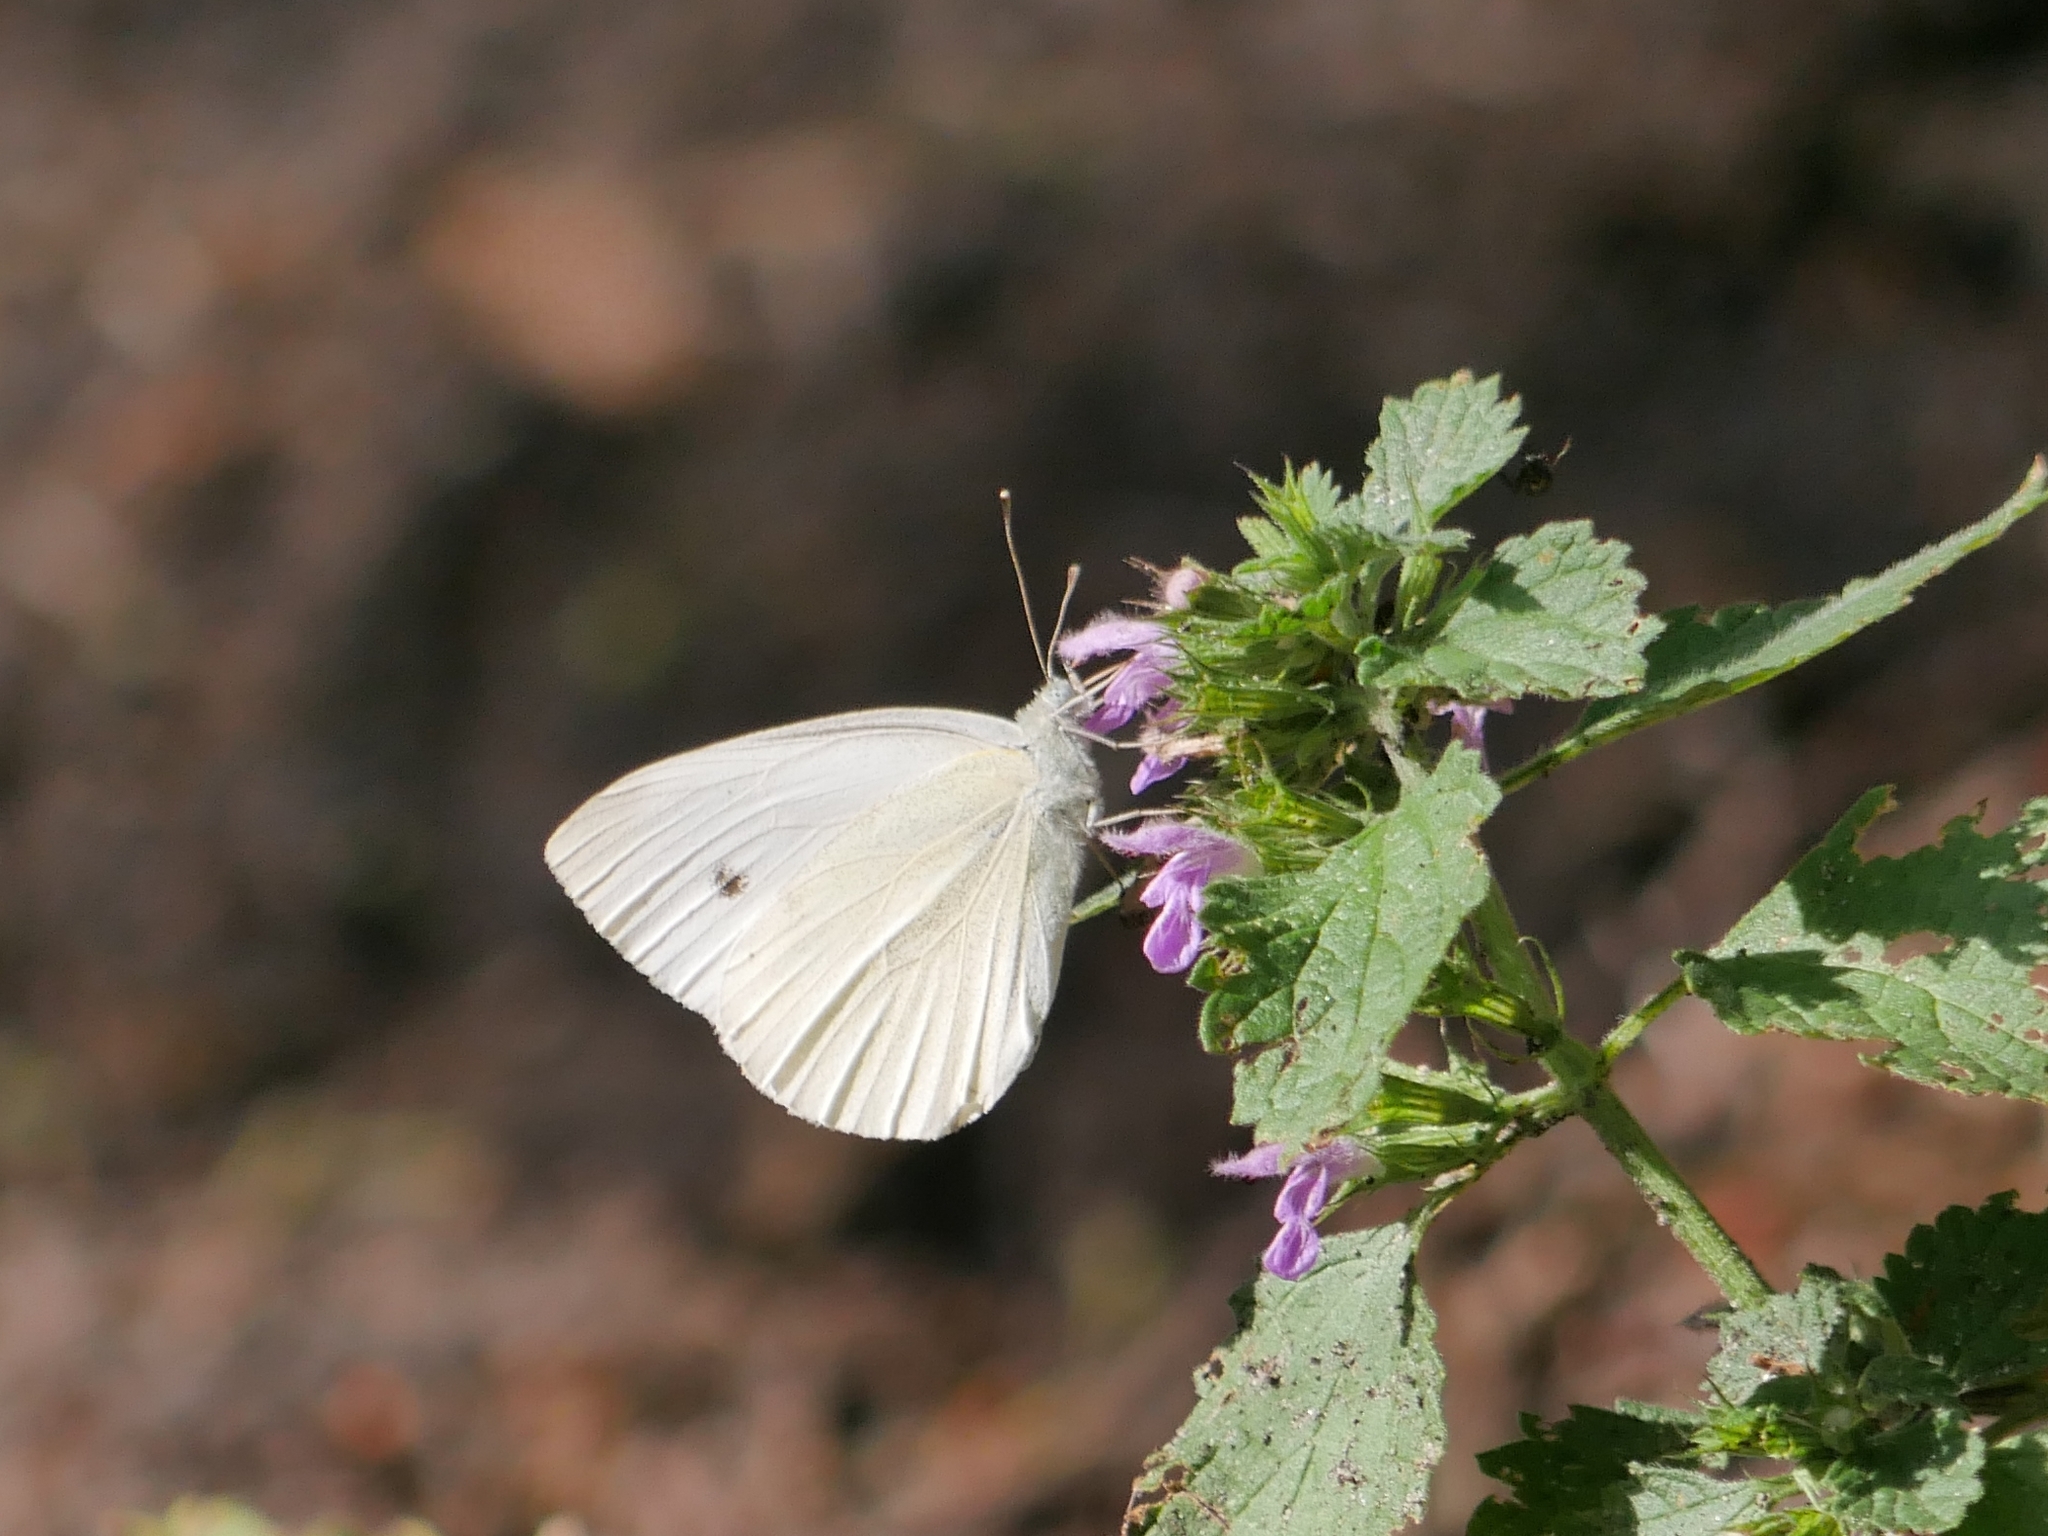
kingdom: Animalia
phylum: Arthropoda
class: Insecta
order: Lepidoptera
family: Pieridae
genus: Pieris
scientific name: Pieris rapae
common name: Small white
